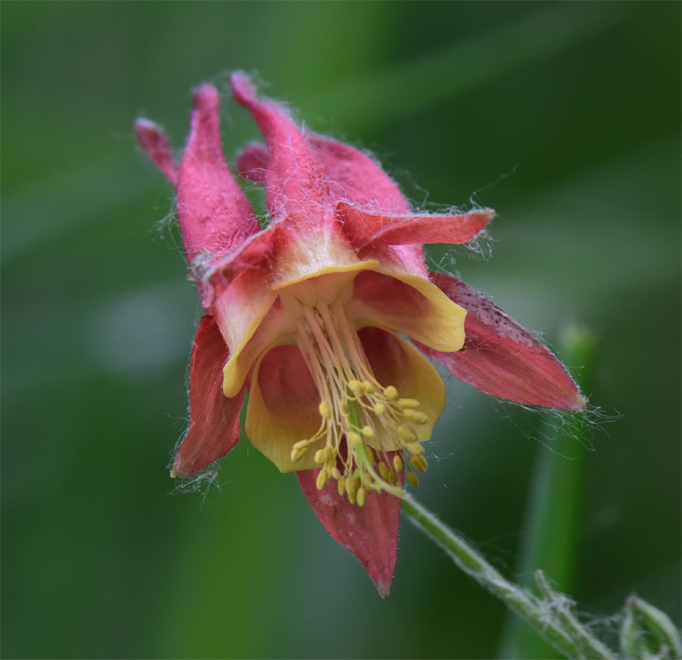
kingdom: Plantae
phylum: Tracheophyta
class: Magnoliopsida
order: Ranunculales
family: Ranunculaceae
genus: Aquilegia
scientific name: Aquilegia canadensis
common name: American columbine
